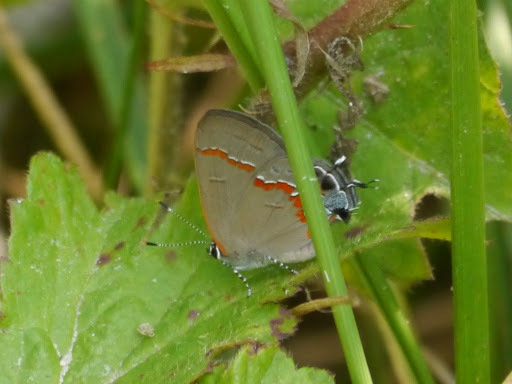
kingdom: Animalia
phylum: Arthropoda
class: Insecta
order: Lepidoptera
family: Lycaenidae
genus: Calycopis
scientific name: Calycopis cecrops
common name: Red-banded hairstreak
